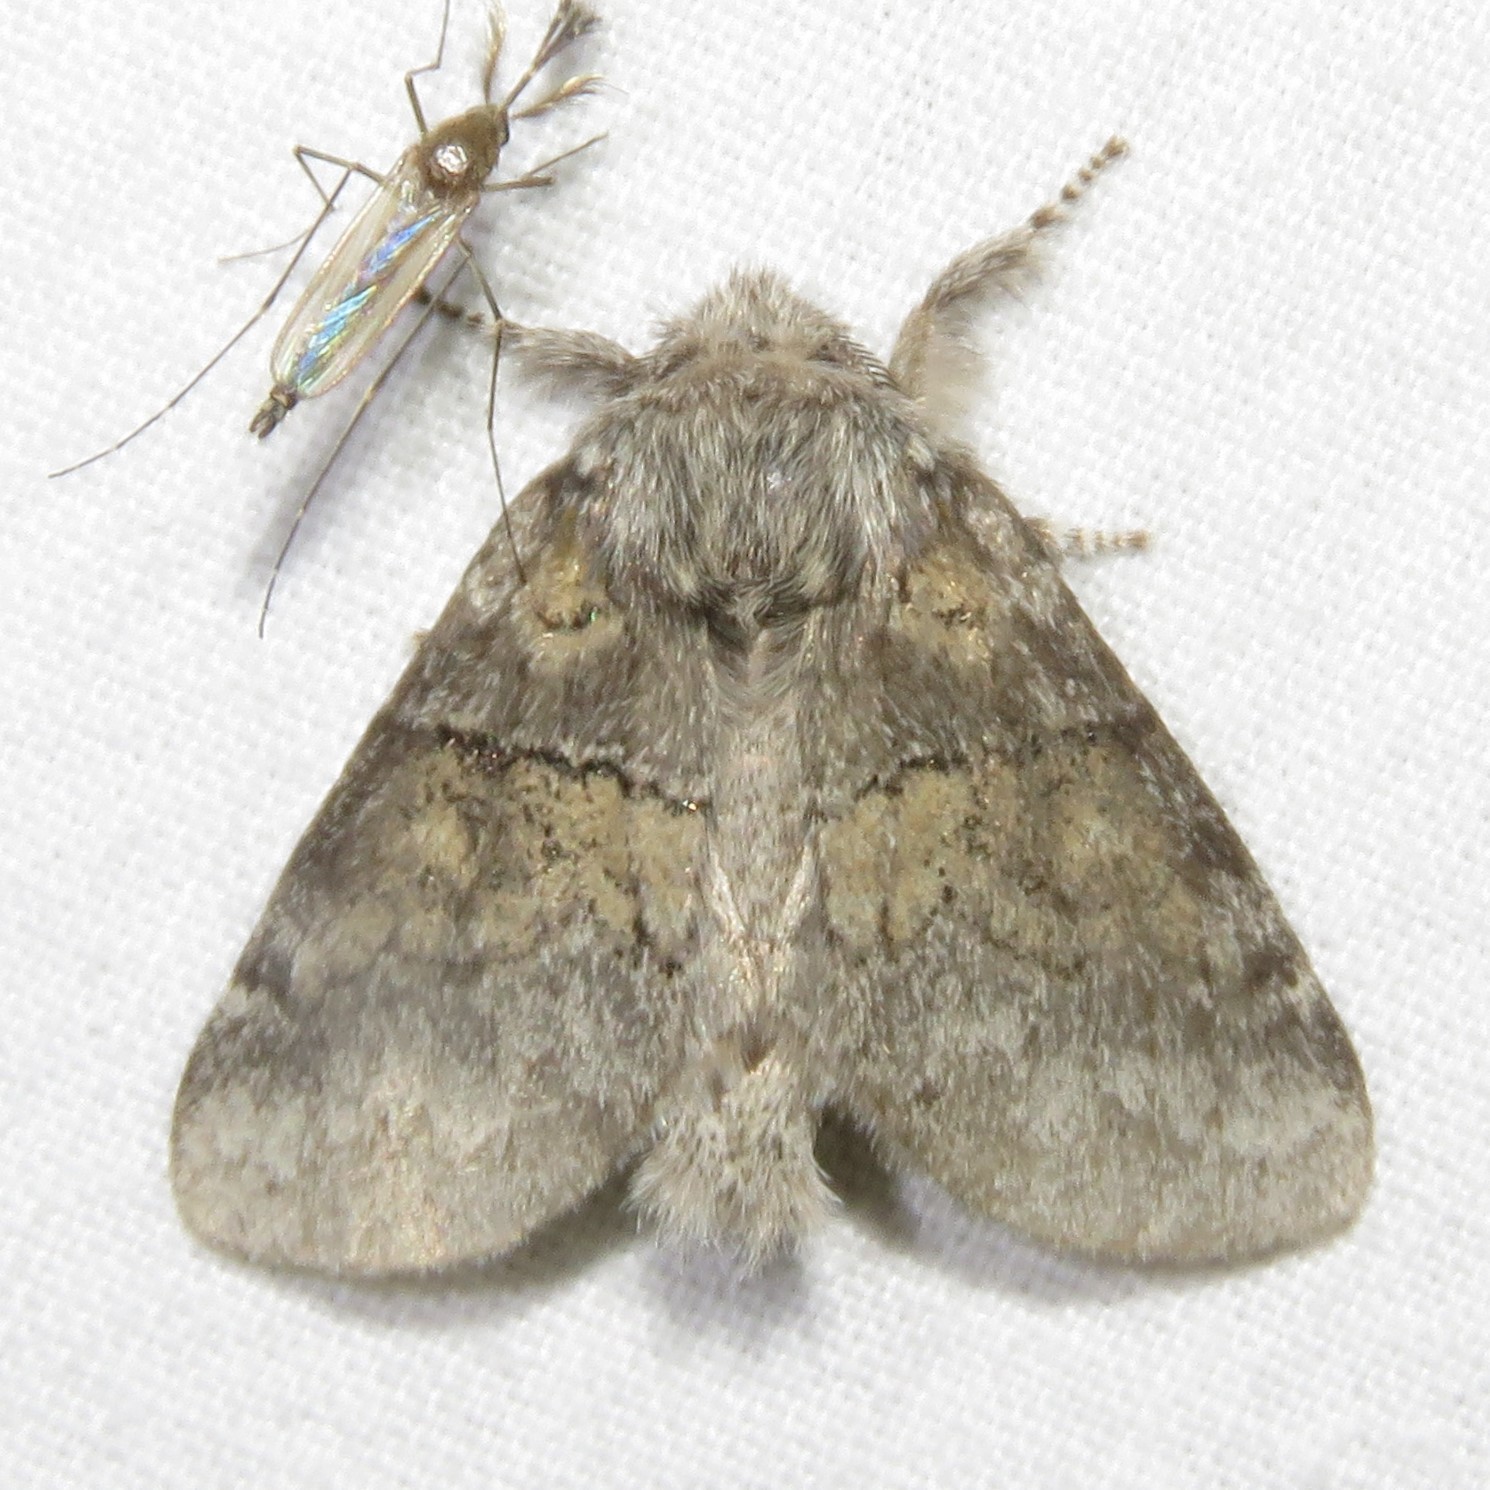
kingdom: Animalia
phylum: Arthropoda
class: Insecta
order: Lepidoptera
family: Notodontidae
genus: Gluphisia
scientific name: Gluphisia septentrionis
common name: Common gluphisia
